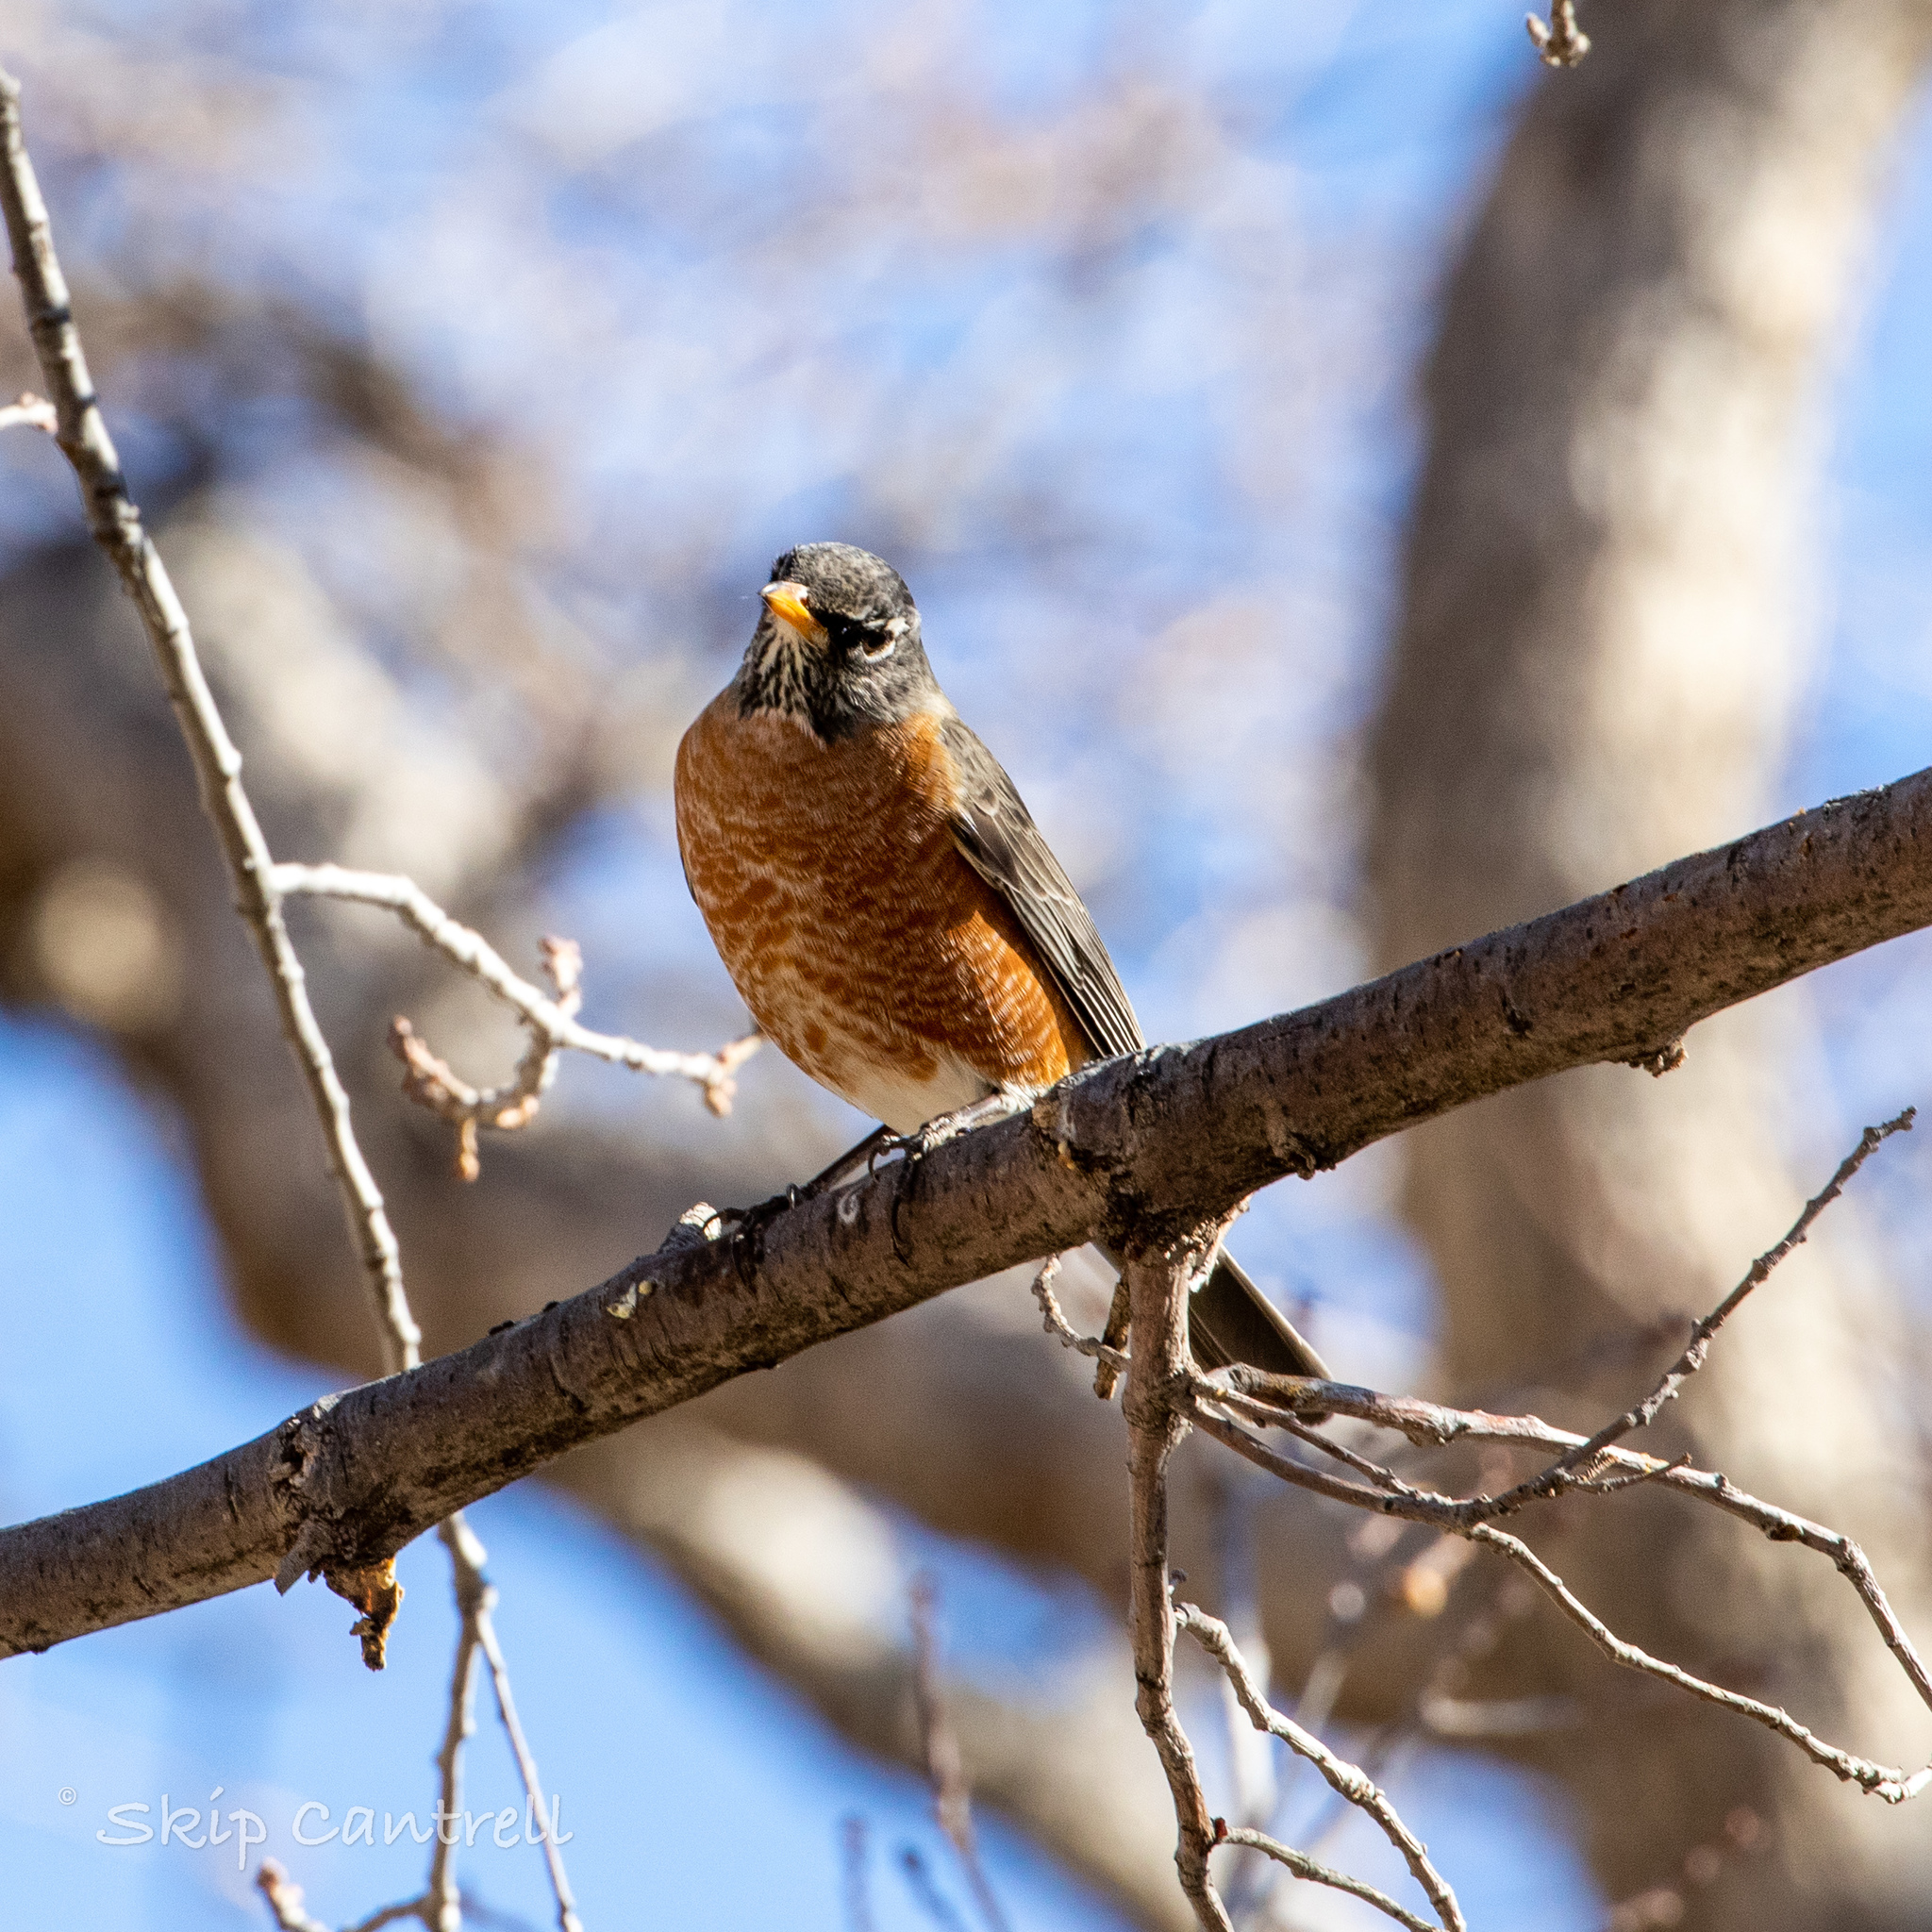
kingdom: Animalia
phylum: Chordata
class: Aves
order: Passeriformes
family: Turdidae
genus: Turdus
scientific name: Turdus migratorius
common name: American robin
